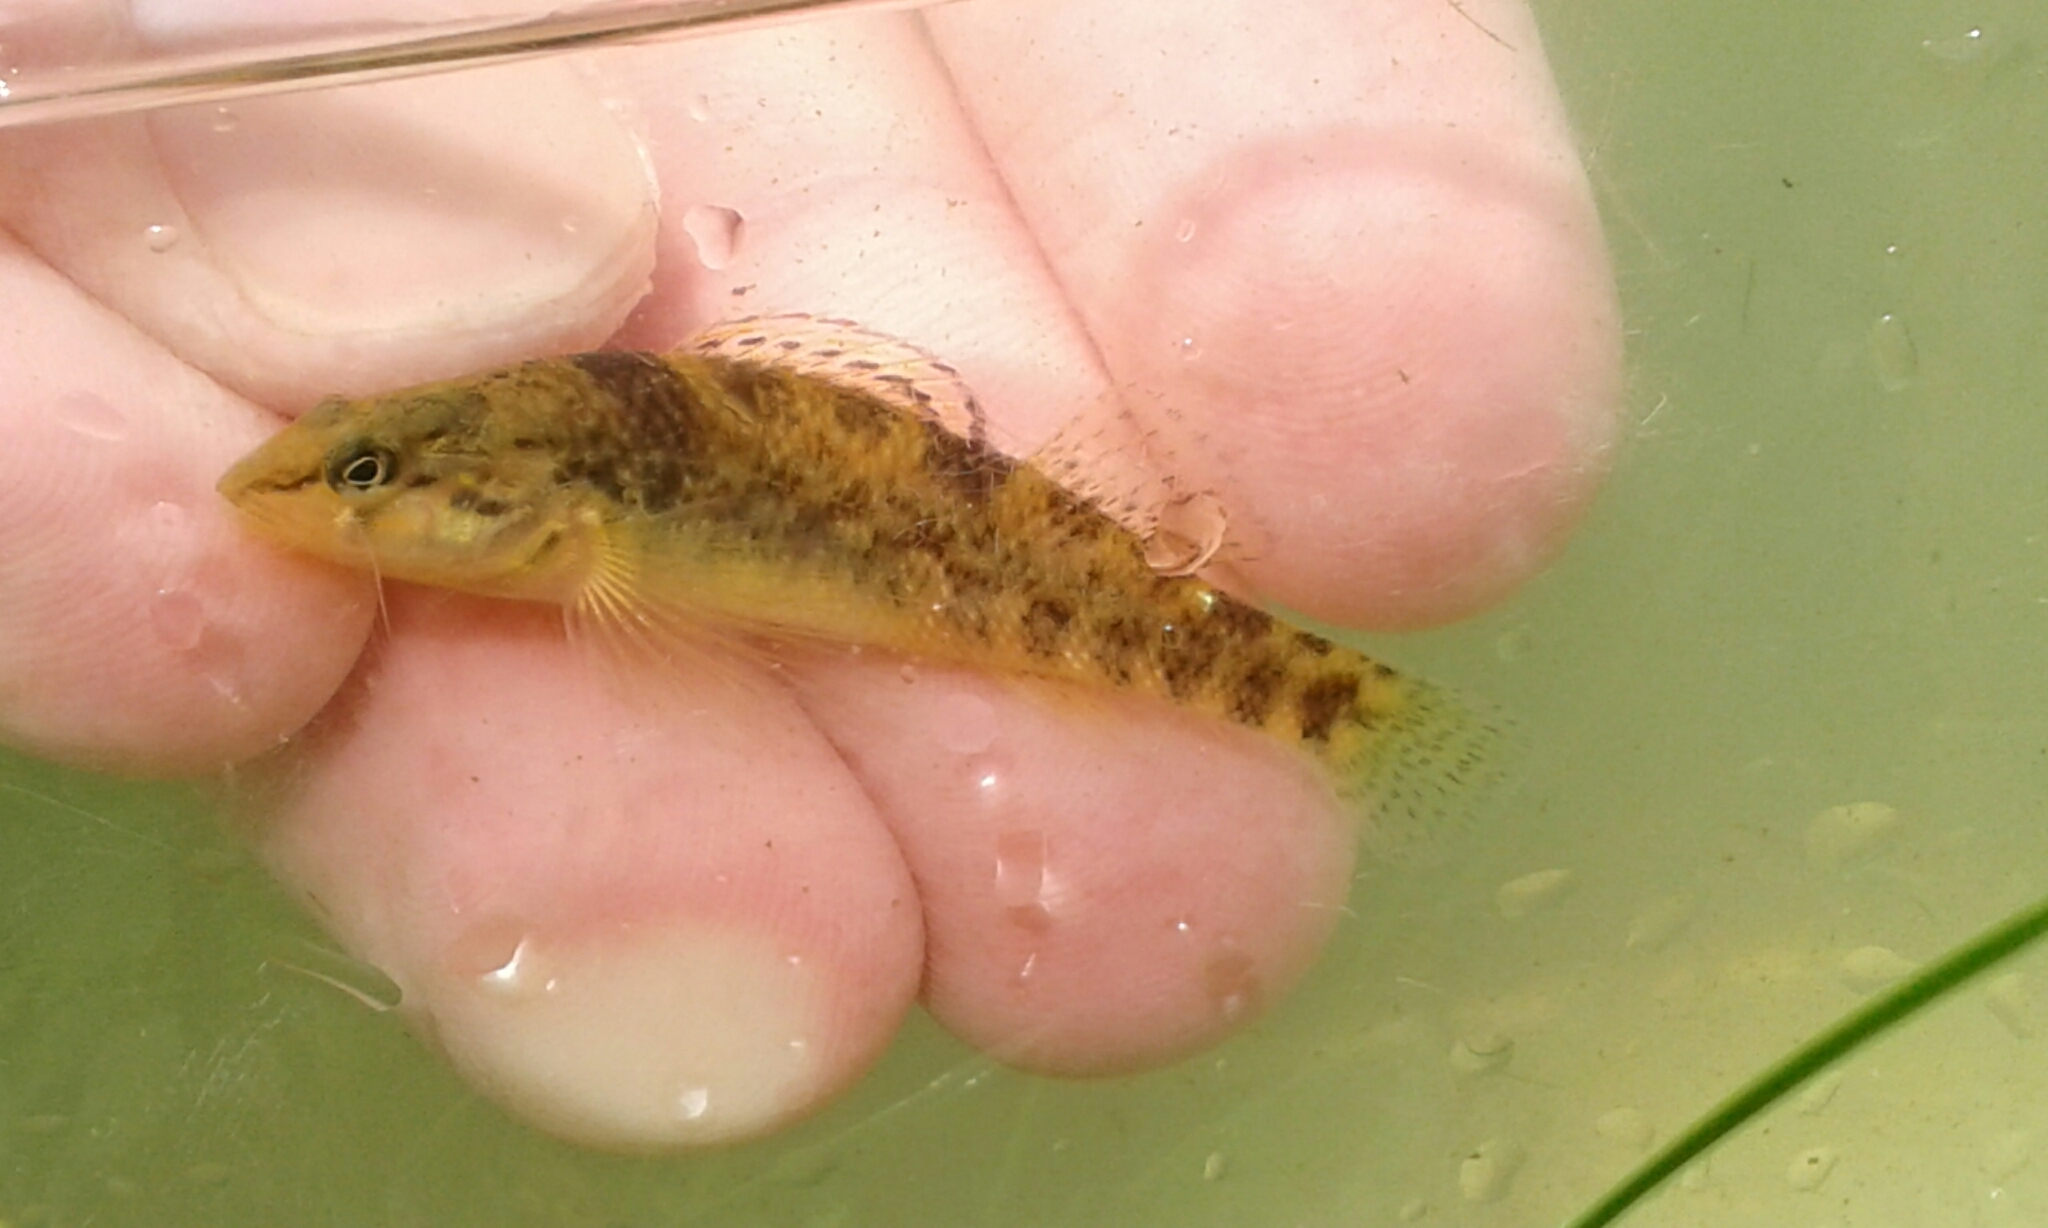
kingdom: Animalia
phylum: Chordata
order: Perciformes
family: Percidae
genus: Etheostoma
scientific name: Etheostoma caeruleum
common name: Rainbow darter
